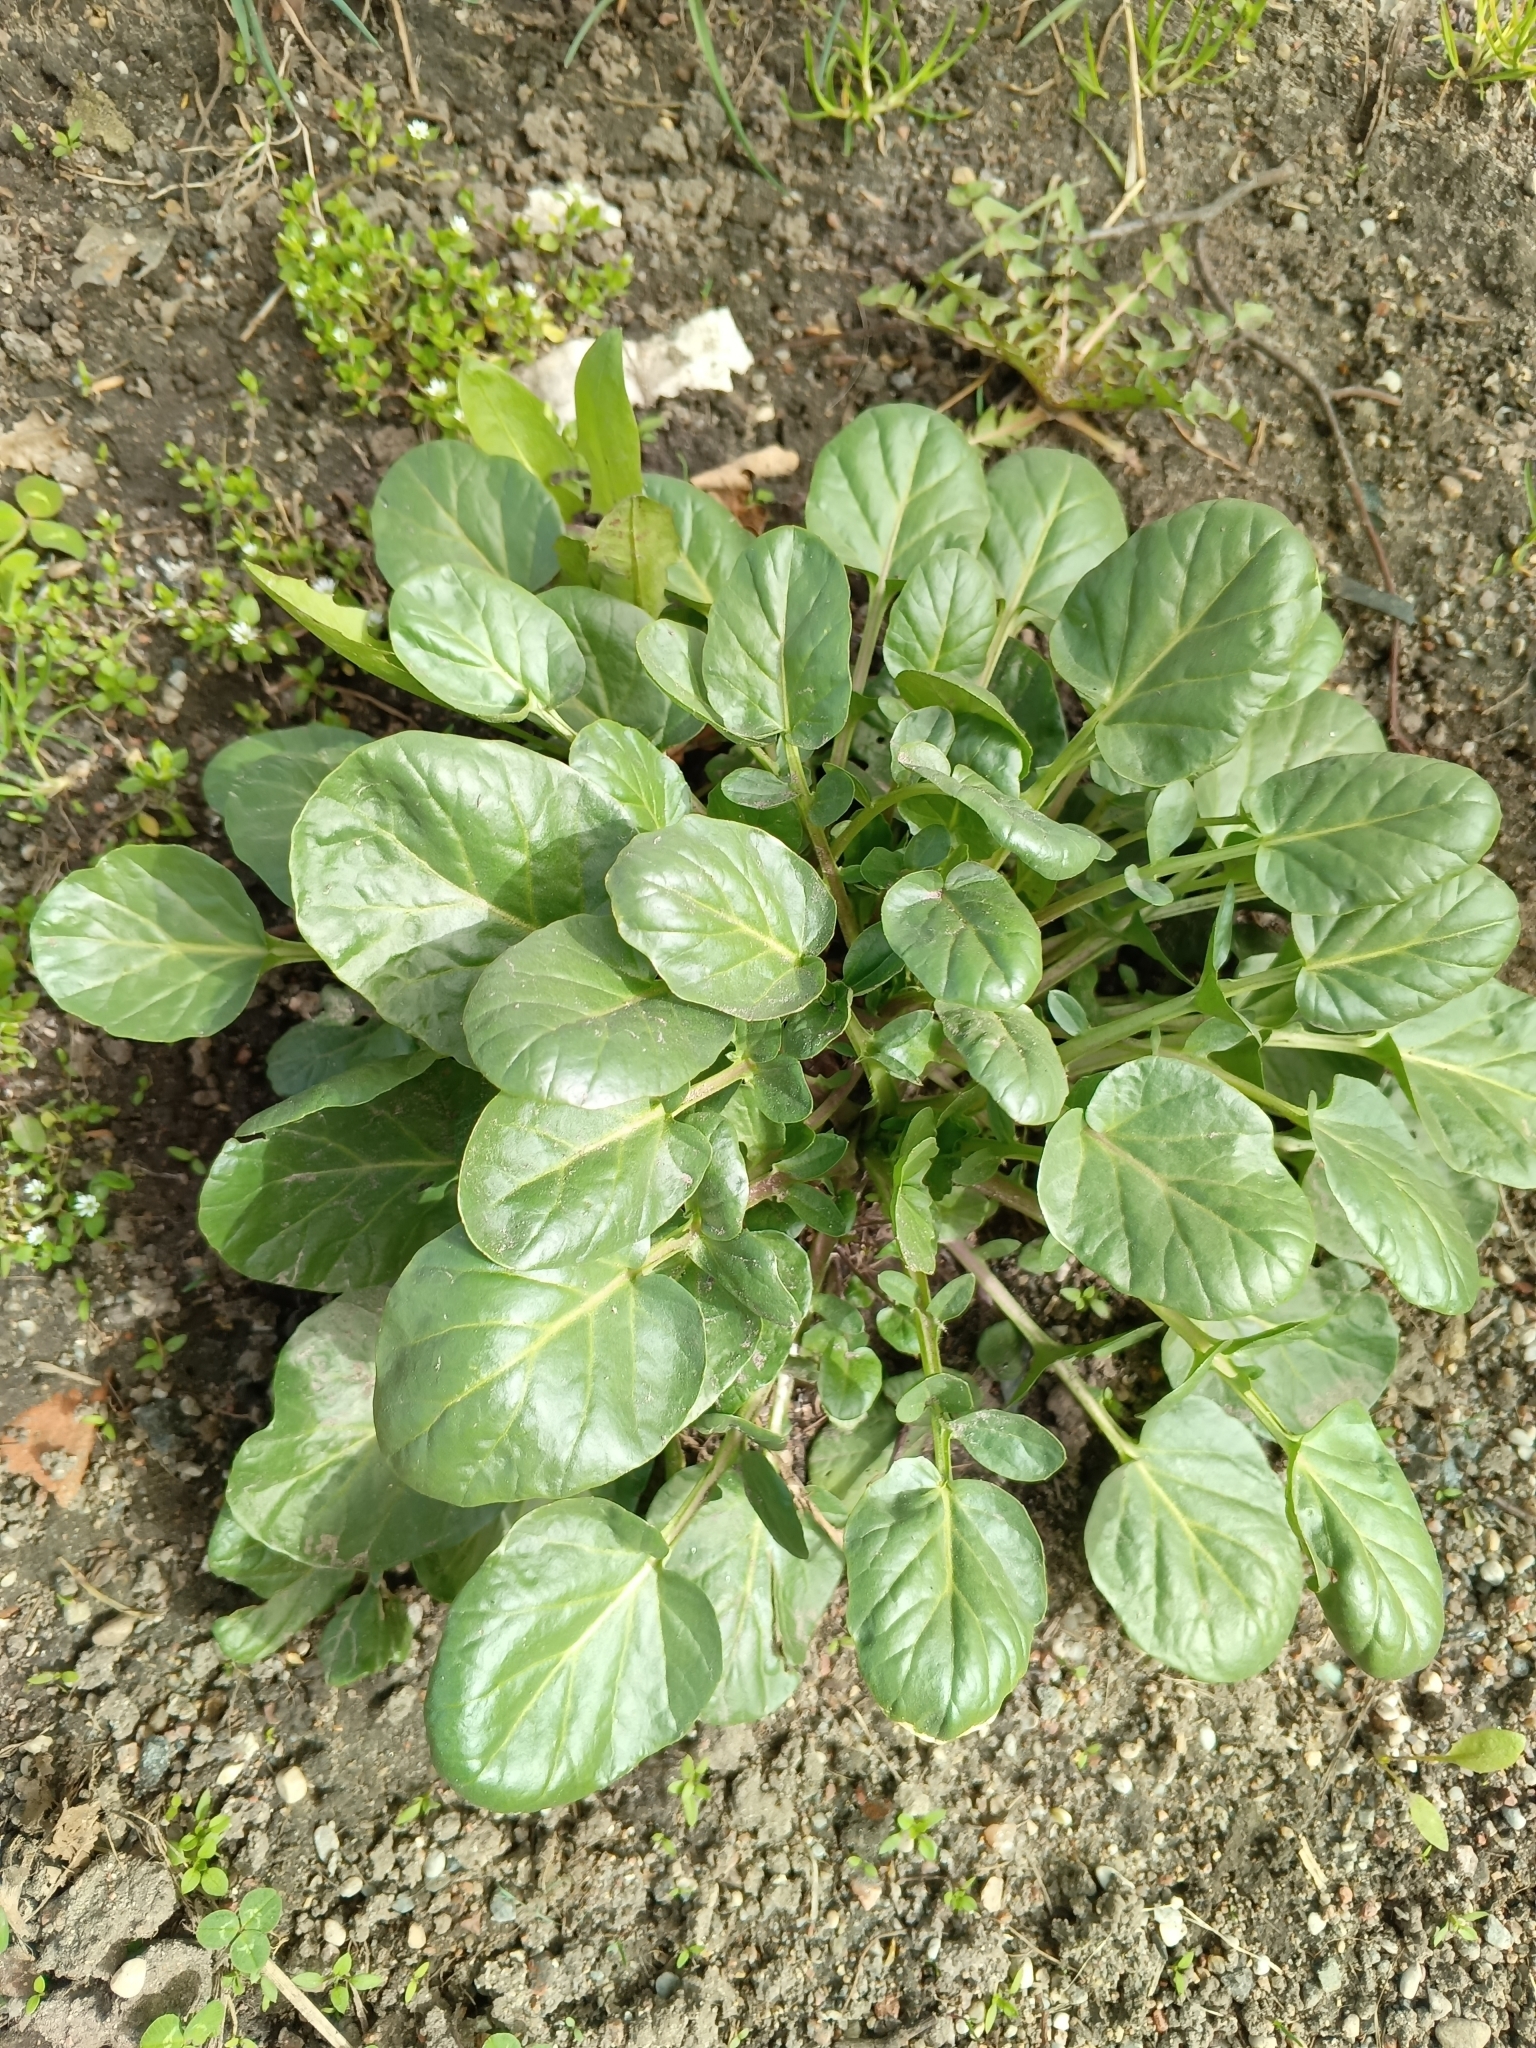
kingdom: Plantae
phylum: Tracheophyta
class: Magnoliopsida
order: Brassicales
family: Brassicaceae
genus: Barbarea
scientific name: Barbarea vulgaris
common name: Cressy-greens
